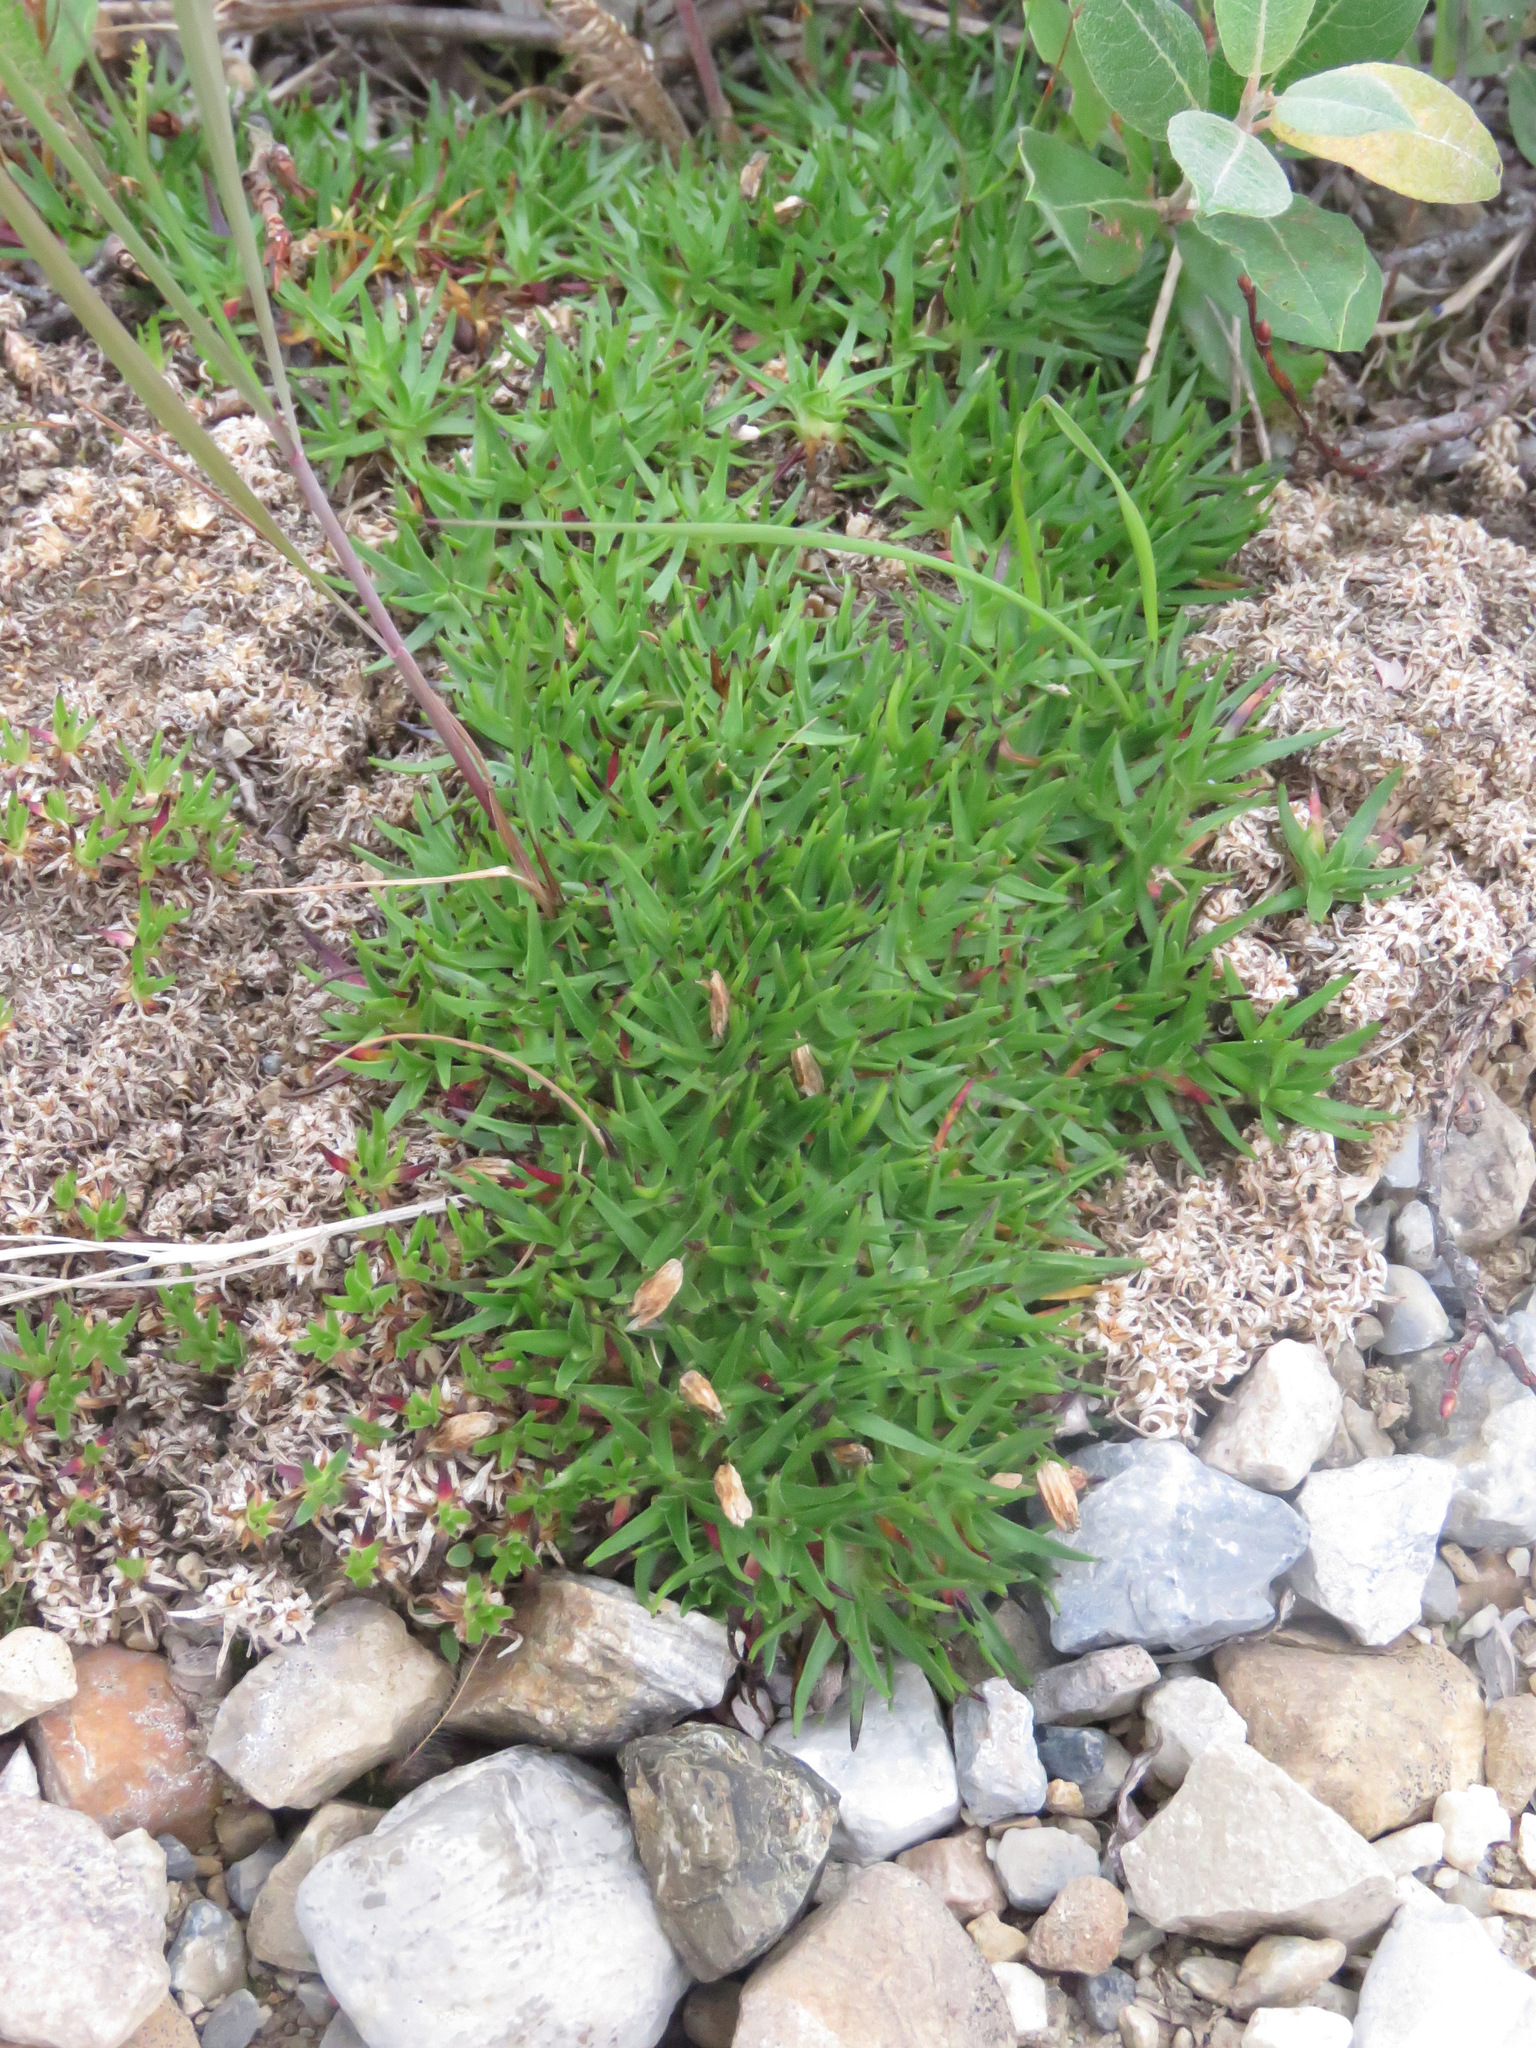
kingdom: Plantae
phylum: Tracheophyta
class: Magnoliopsida
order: Caryophyllales
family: Caryophyllaceae
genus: Silene
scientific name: Silene acaulis
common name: Moss campion
